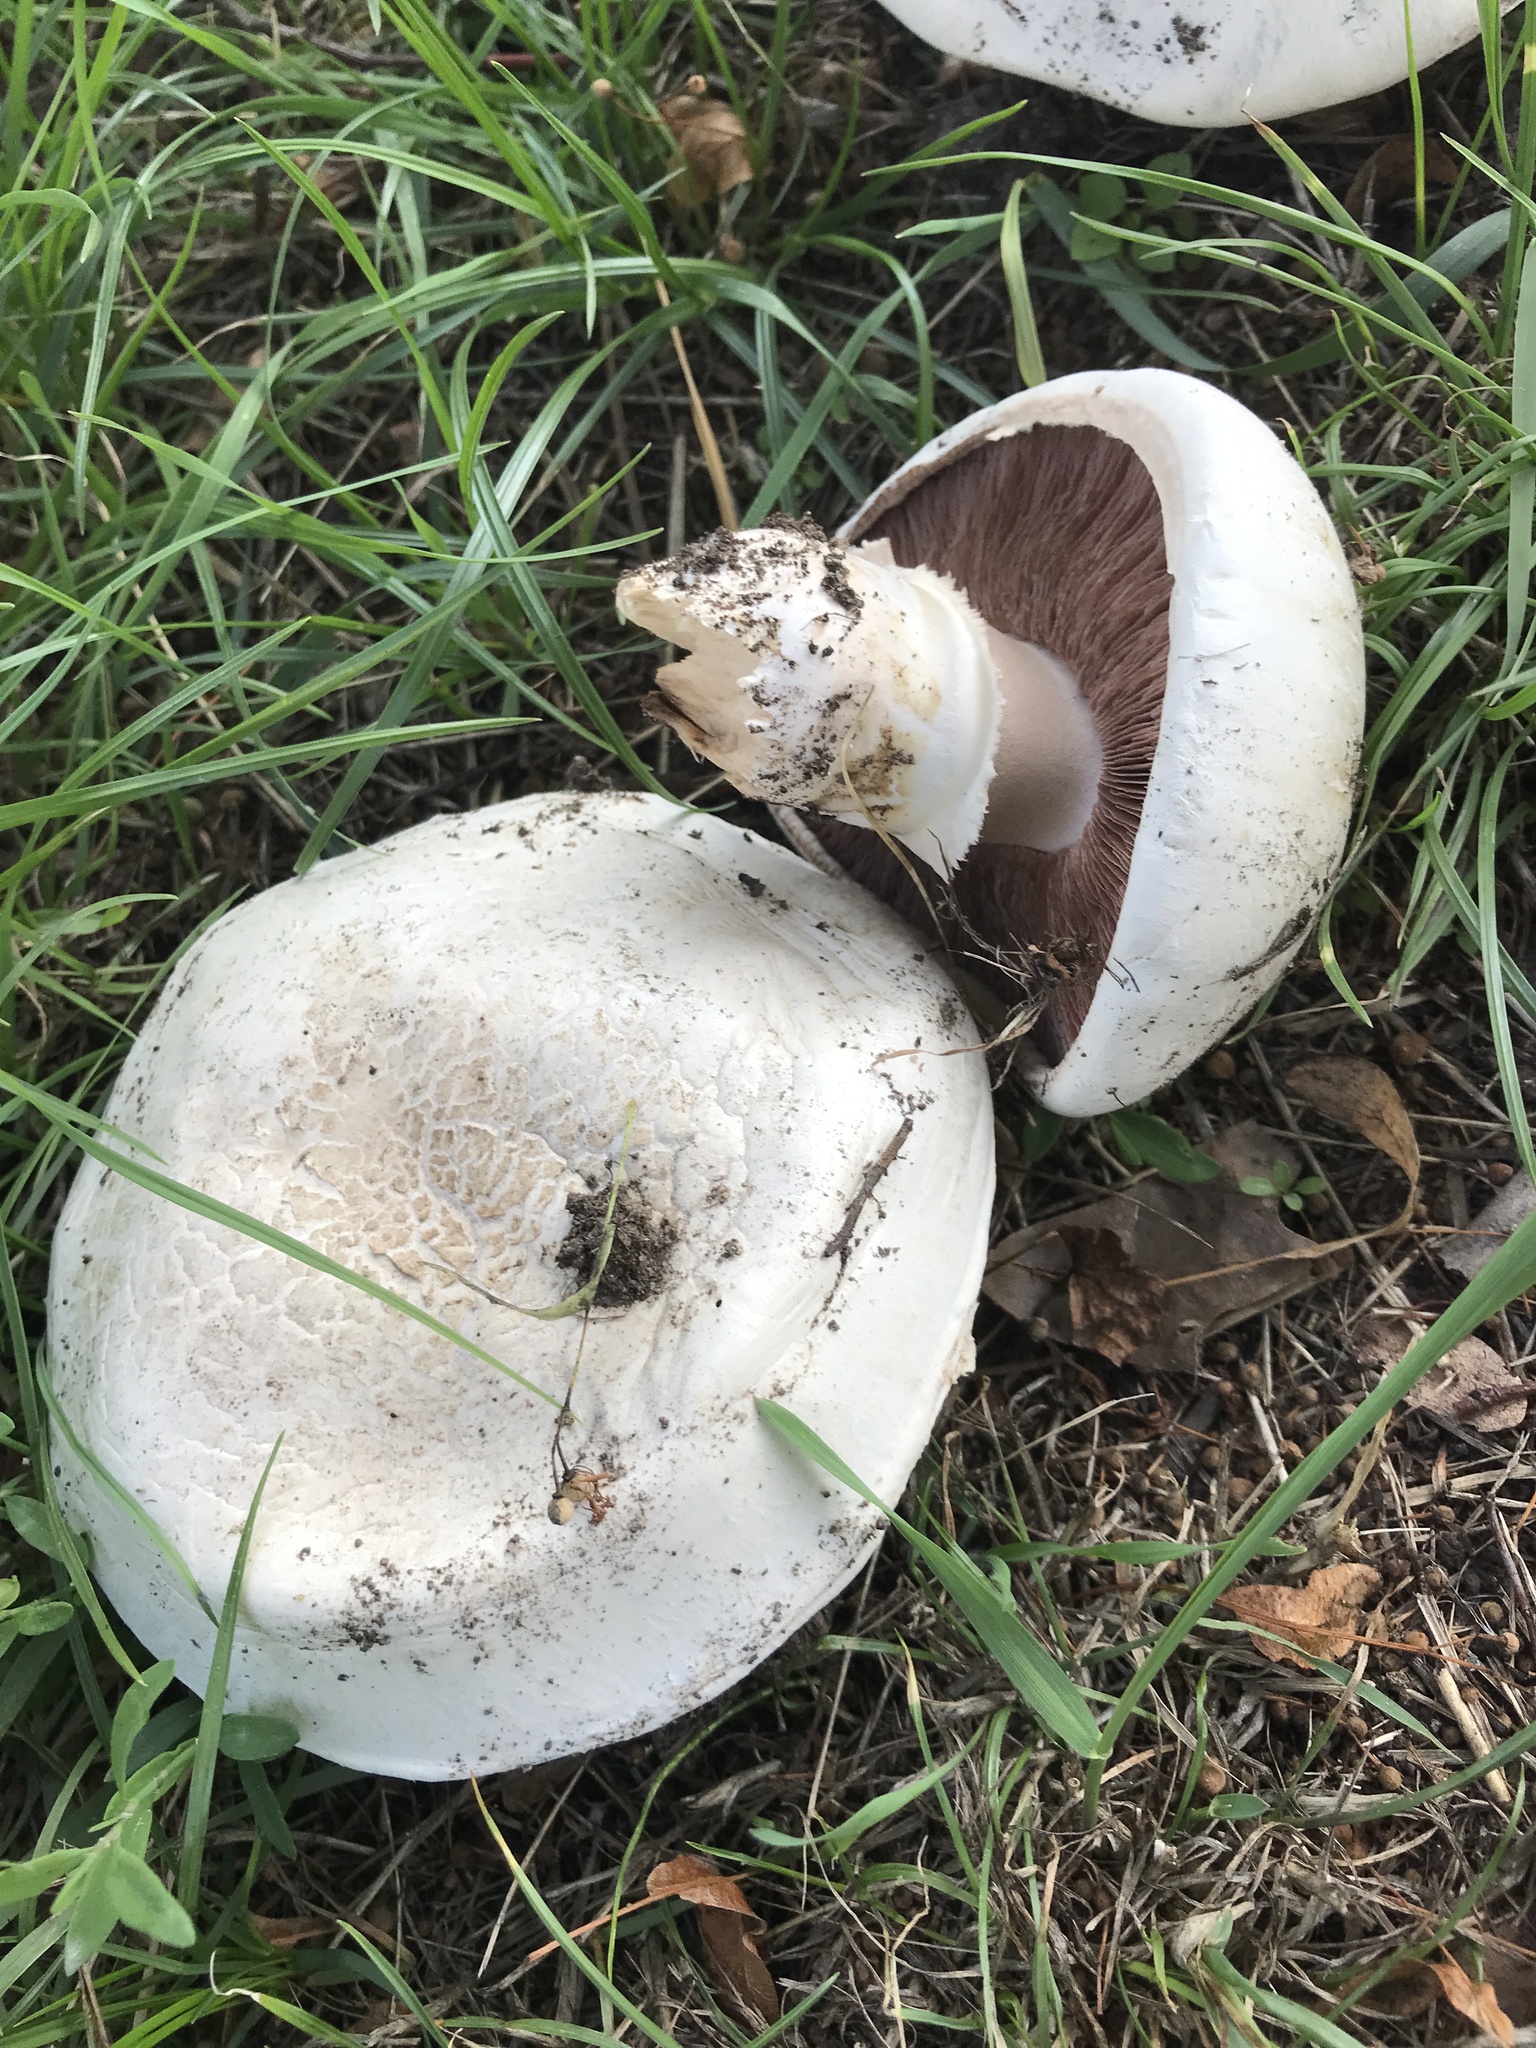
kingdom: Fungi
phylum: Basidiomycota
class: Agaricomycetes
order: Agaricales
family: Agaricaceae
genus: Agaricus
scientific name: Agaricus urinascens
